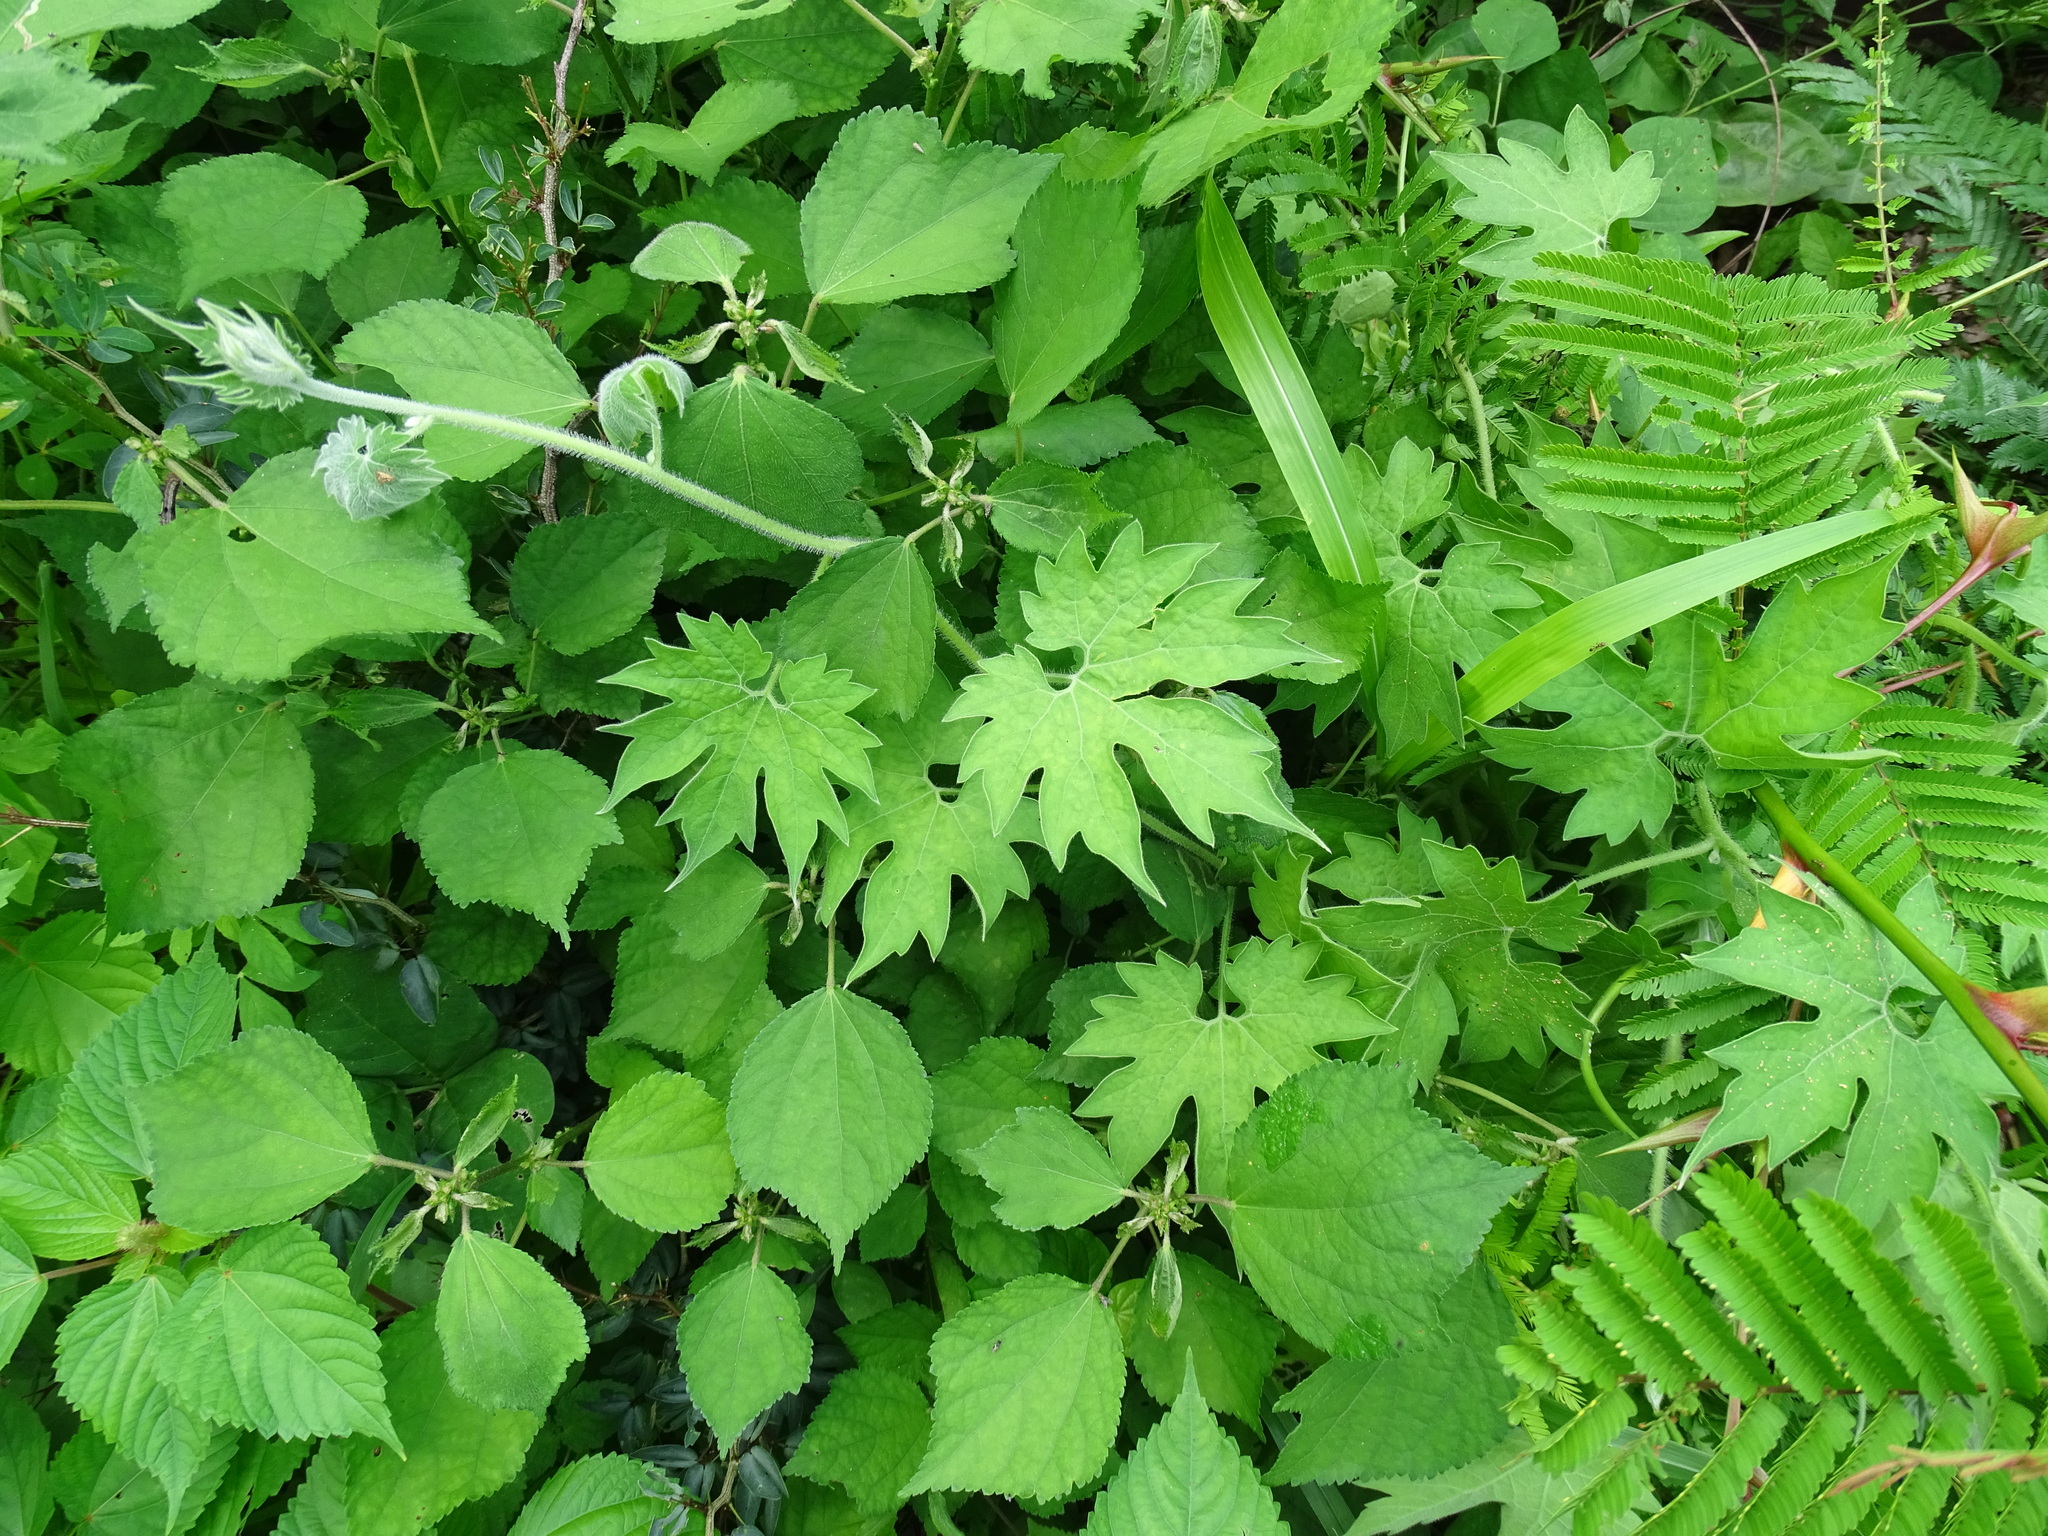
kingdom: Plantae
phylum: Tracheophyta
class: Magnoliopsida
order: Cornales
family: Loasaceae
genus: Gronovia
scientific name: Gronovia scandens
